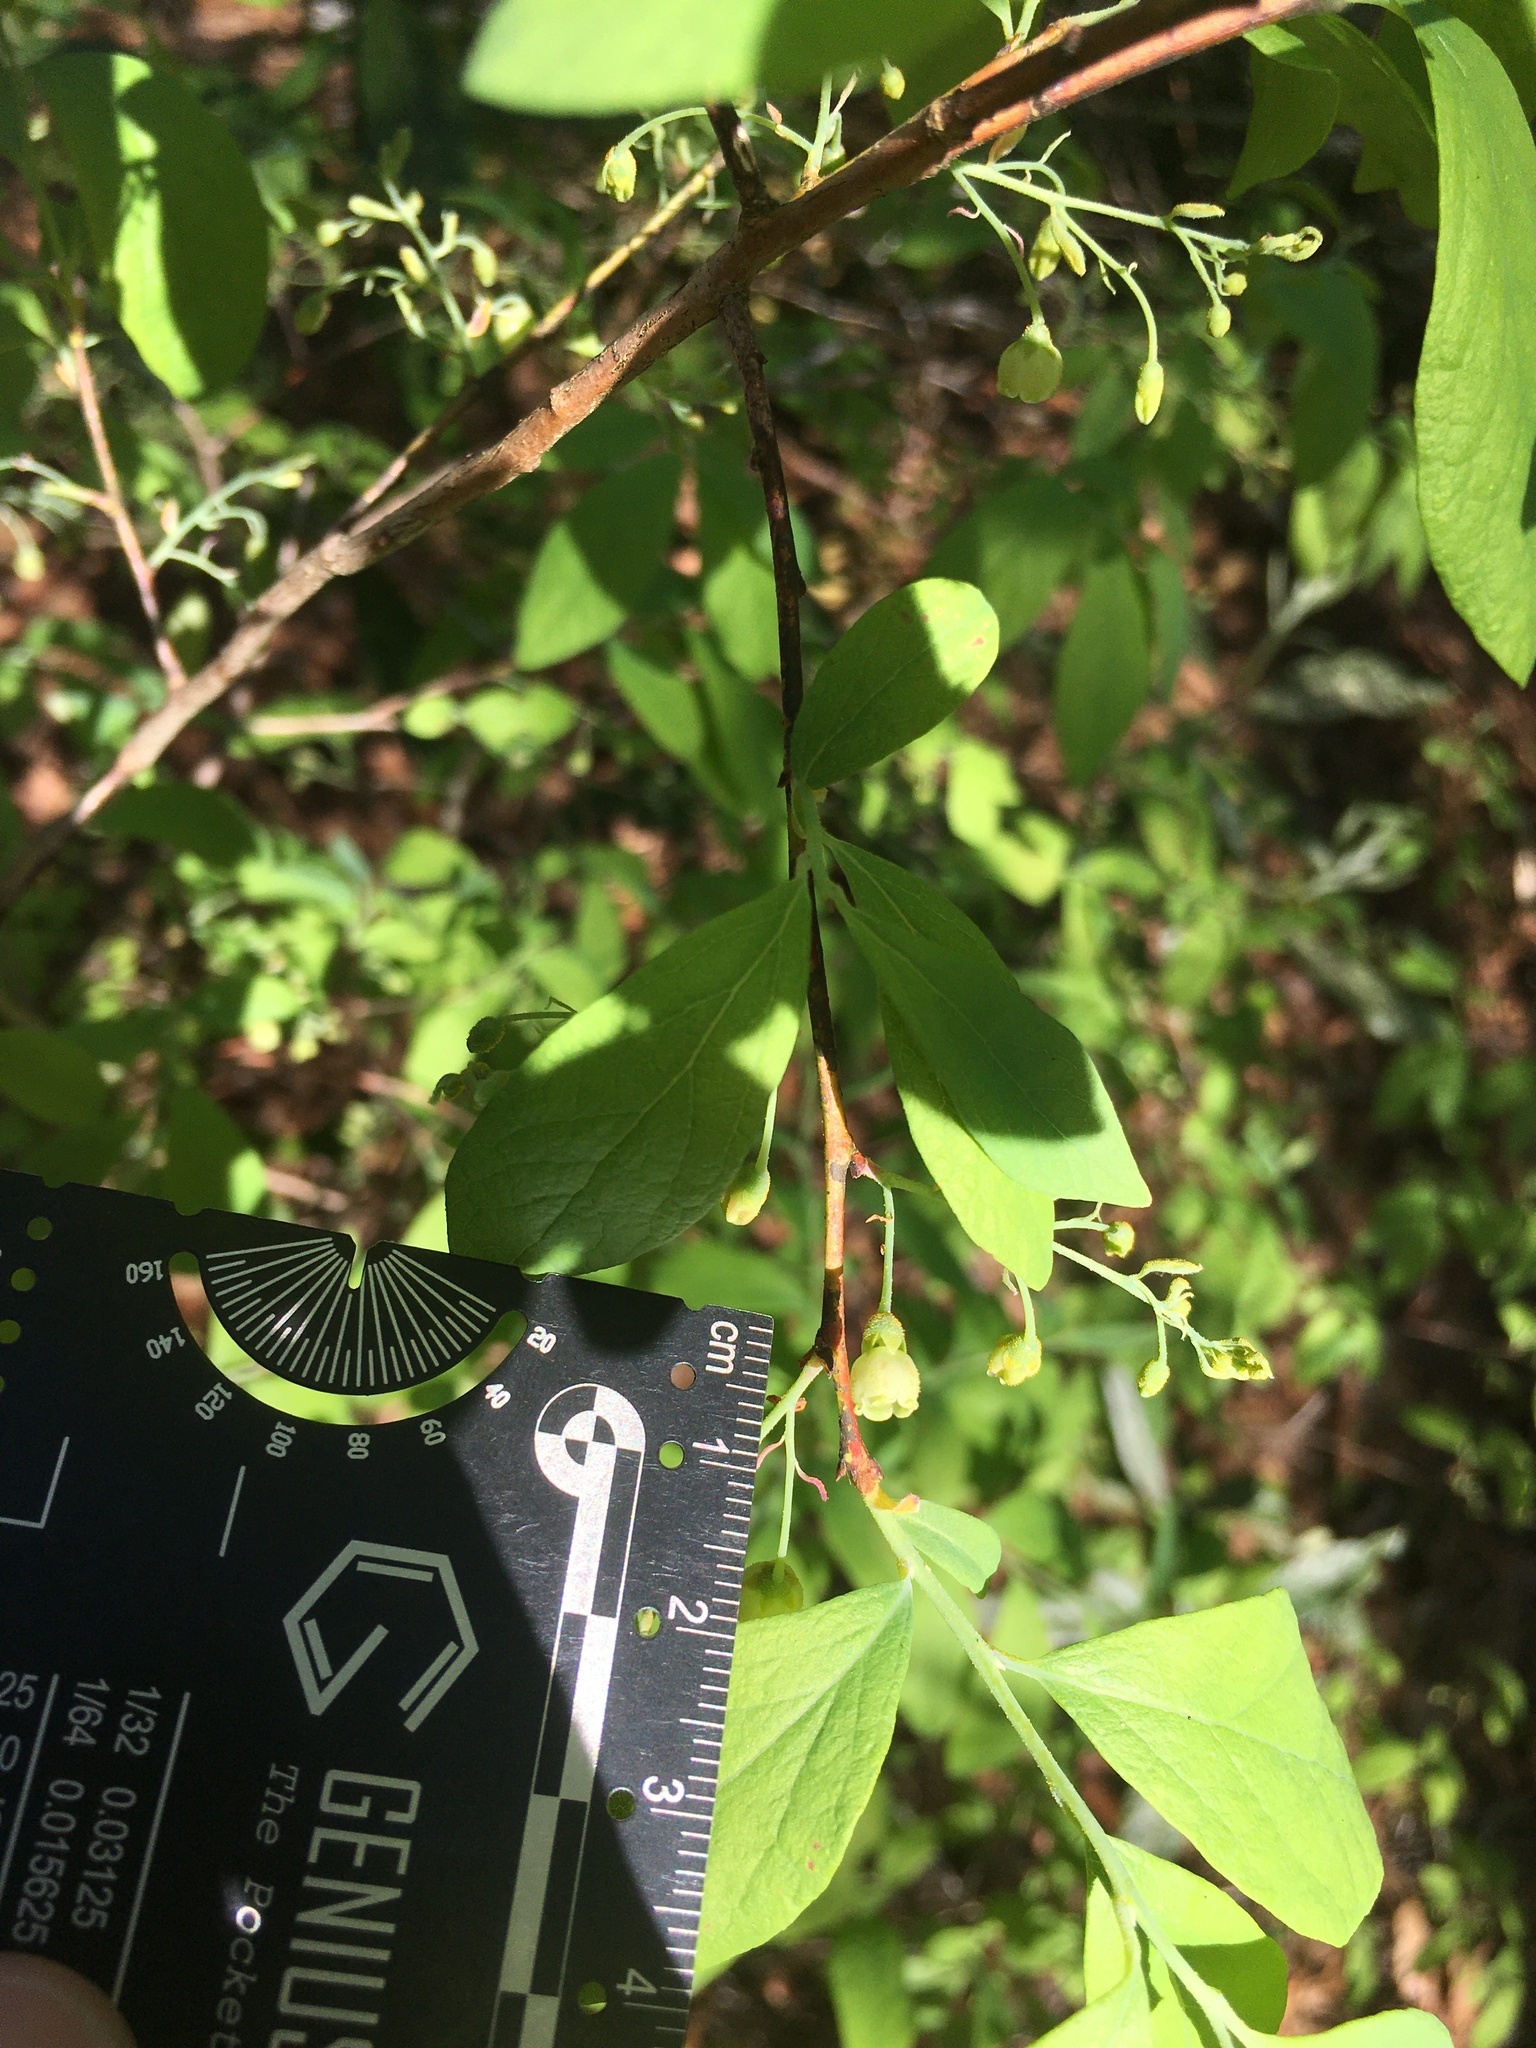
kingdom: Plantae
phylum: Tracheophyta
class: Magnoliopsida
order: Ericales
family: Ericaceae
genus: Gaylussacia
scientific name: Gaylussacia frondosa
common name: Dangleberry
